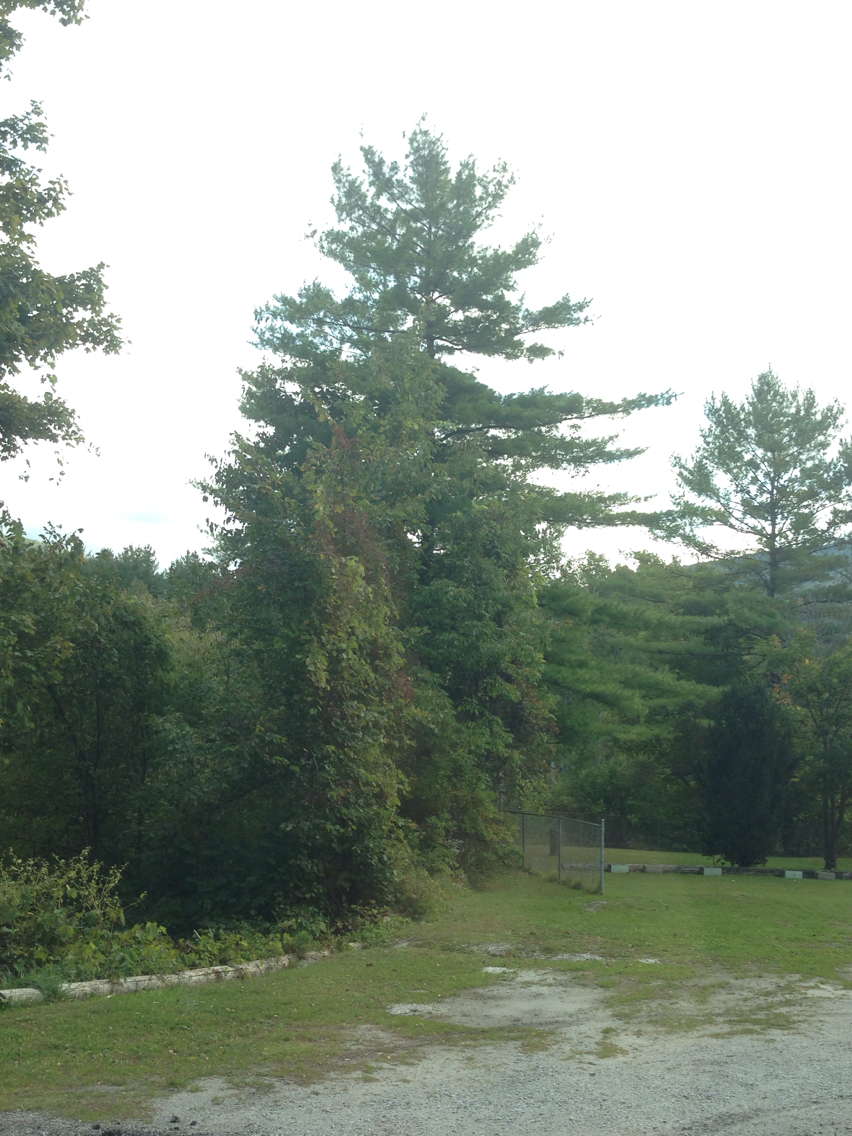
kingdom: Plantae
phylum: Tracheophyta
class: Pinopsida
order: Pinales
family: Pinaceae
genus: Pinus
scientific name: Pinus strobus
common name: Weymouth pine
